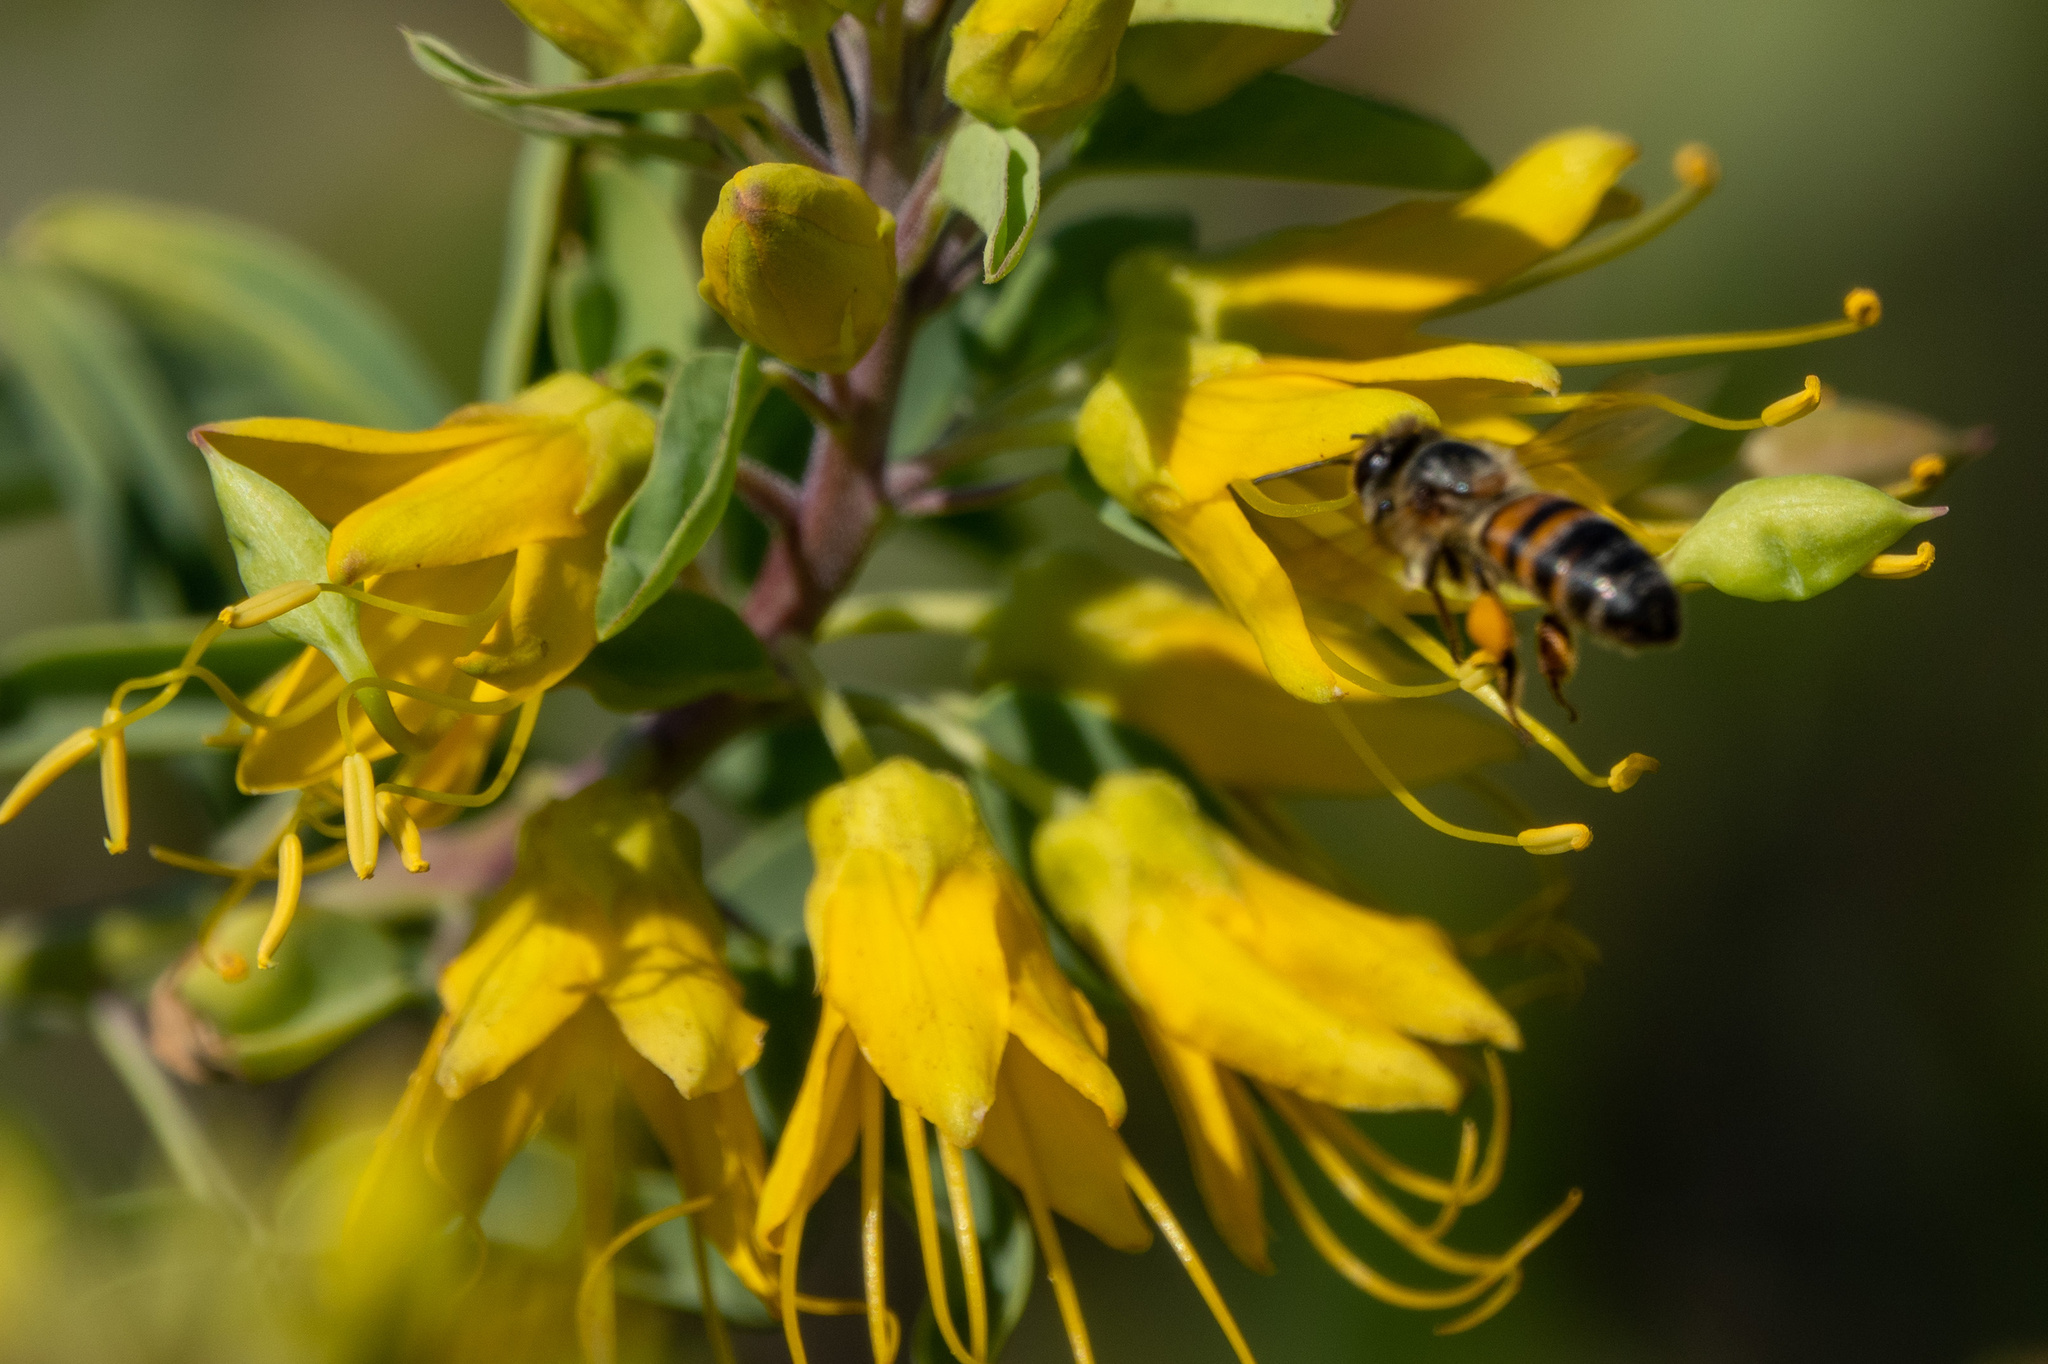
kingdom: Animalia
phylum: Arthropoda
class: Insecta
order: Hymenoptera
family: Apidae
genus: Apis
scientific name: Apis mellifera
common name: Honey bee
